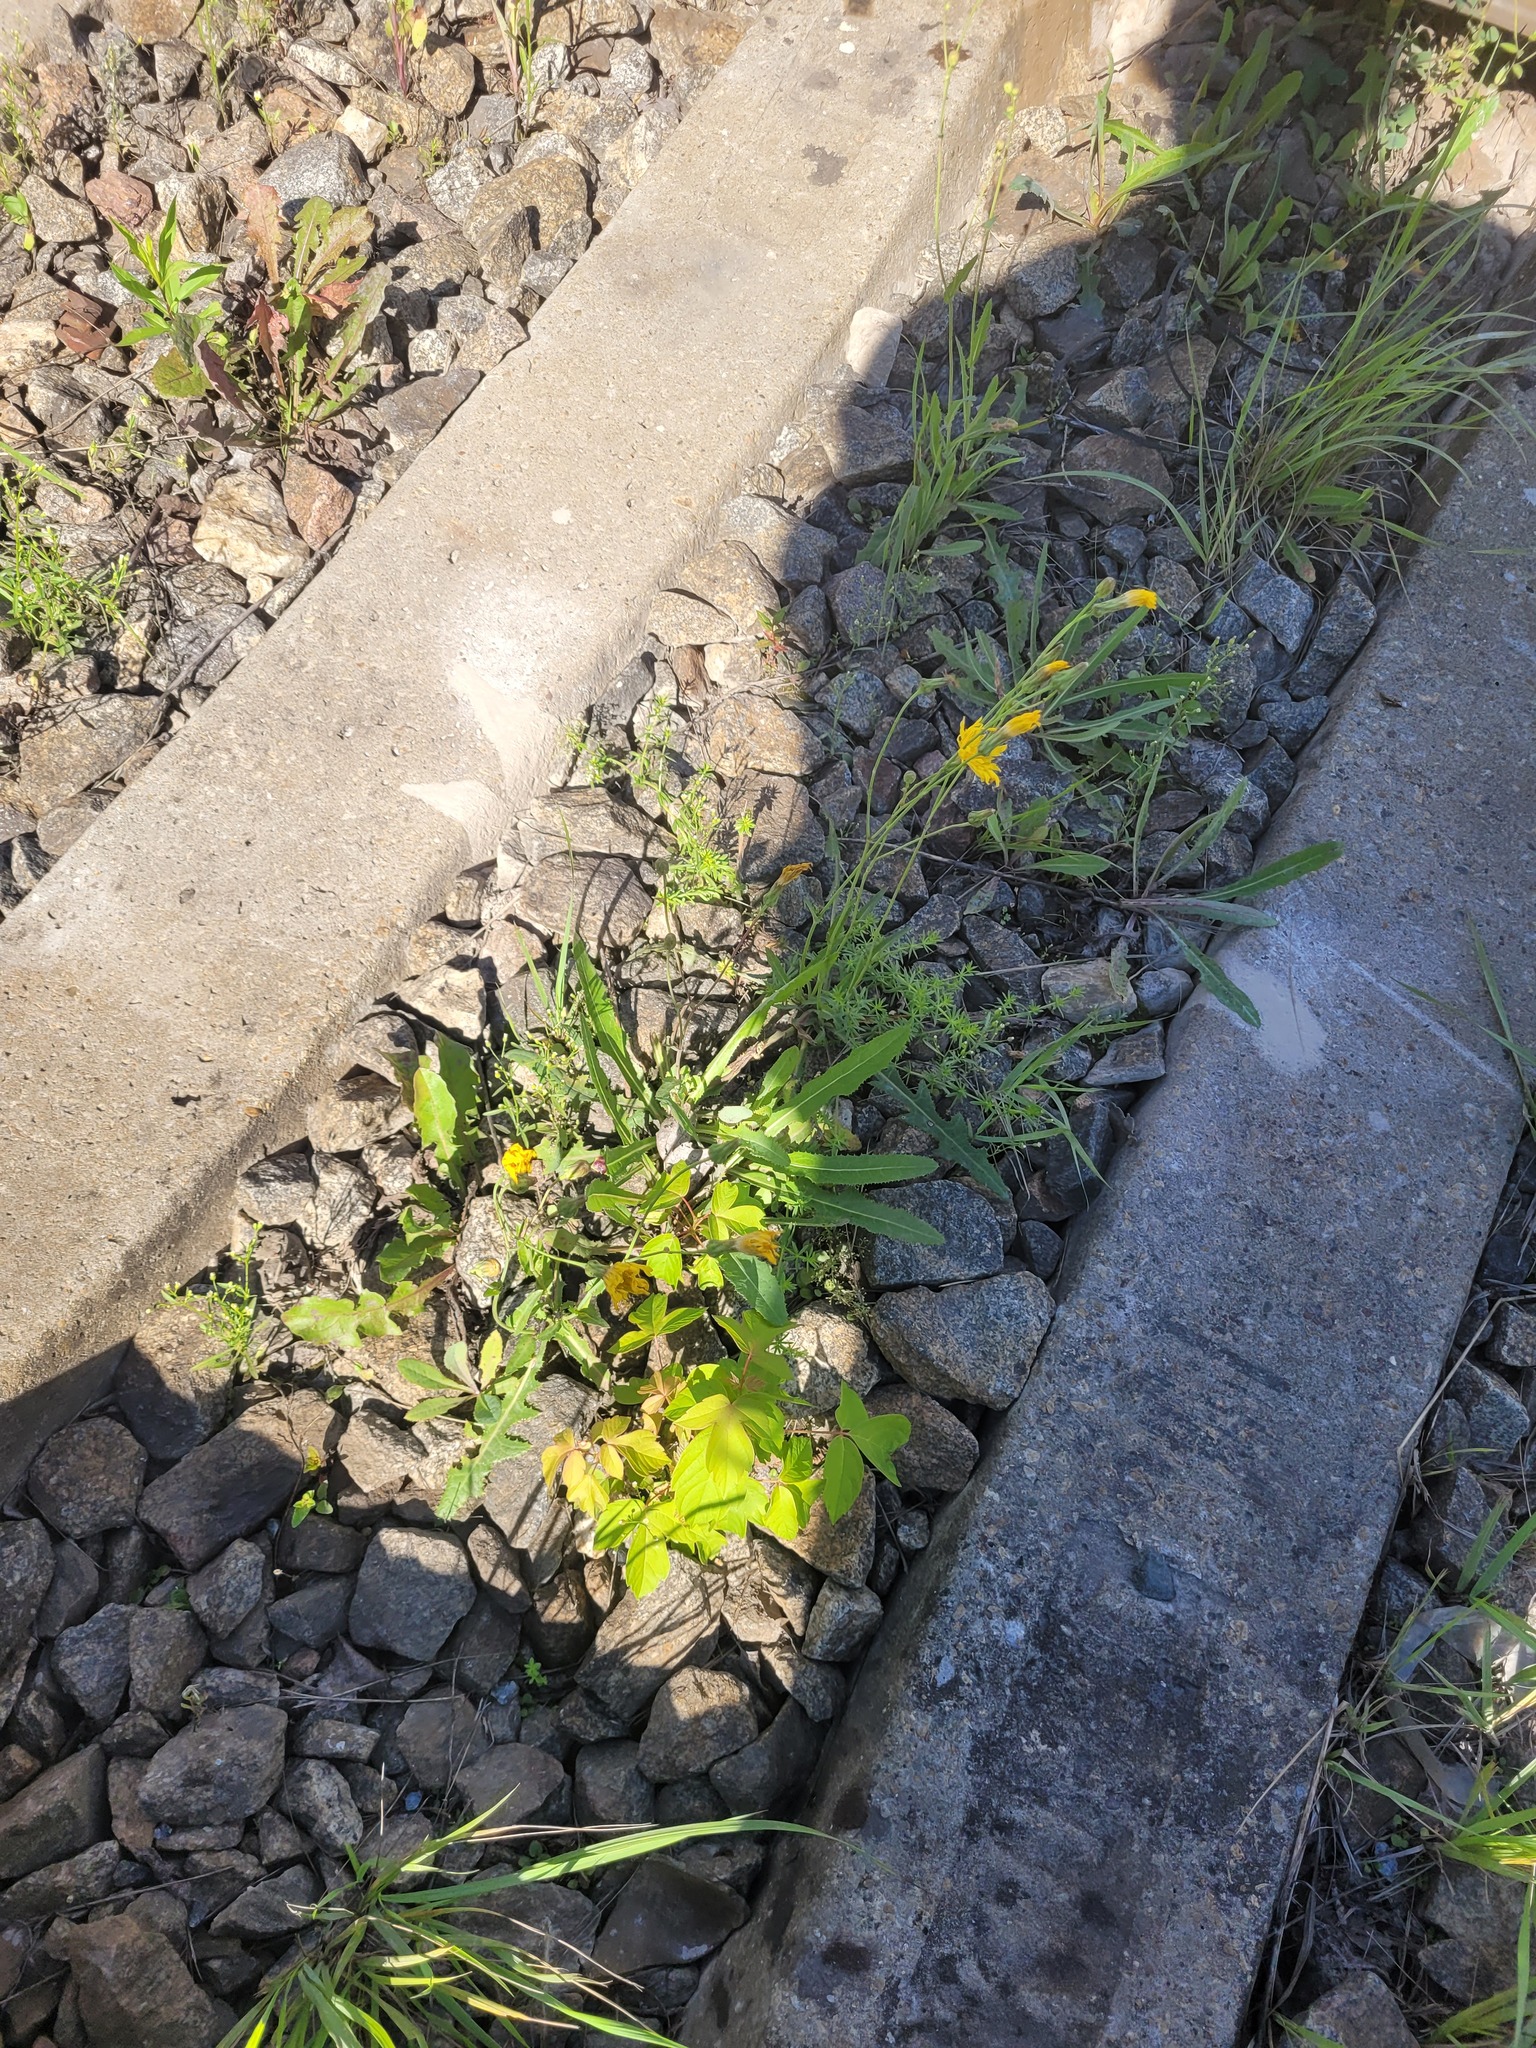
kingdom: Plantae
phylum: Tracheophyta
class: Magnoliopsida
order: Asterales
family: Asteraceae
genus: Sonchus
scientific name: Sonchus arvensis
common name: Perennial sow-thistle
